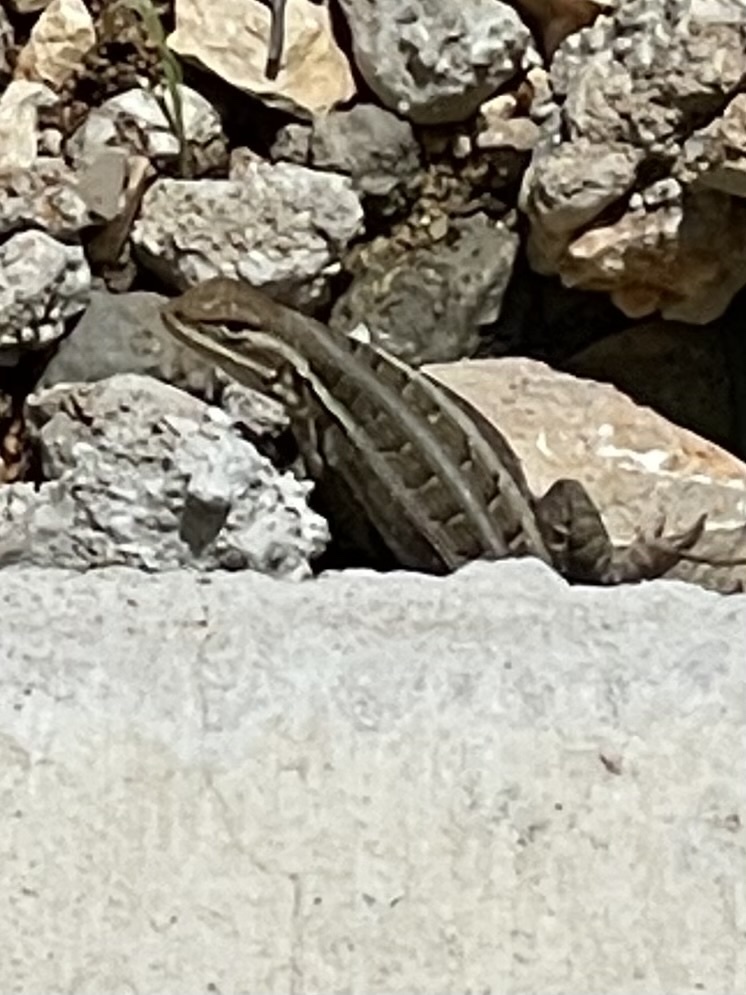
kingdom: Animalia
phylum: Chordata
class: Squamata
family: Phrynosomatidae
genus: Sceloporus
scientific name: Sceloporus variabilis
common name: Rosebelly lizard
